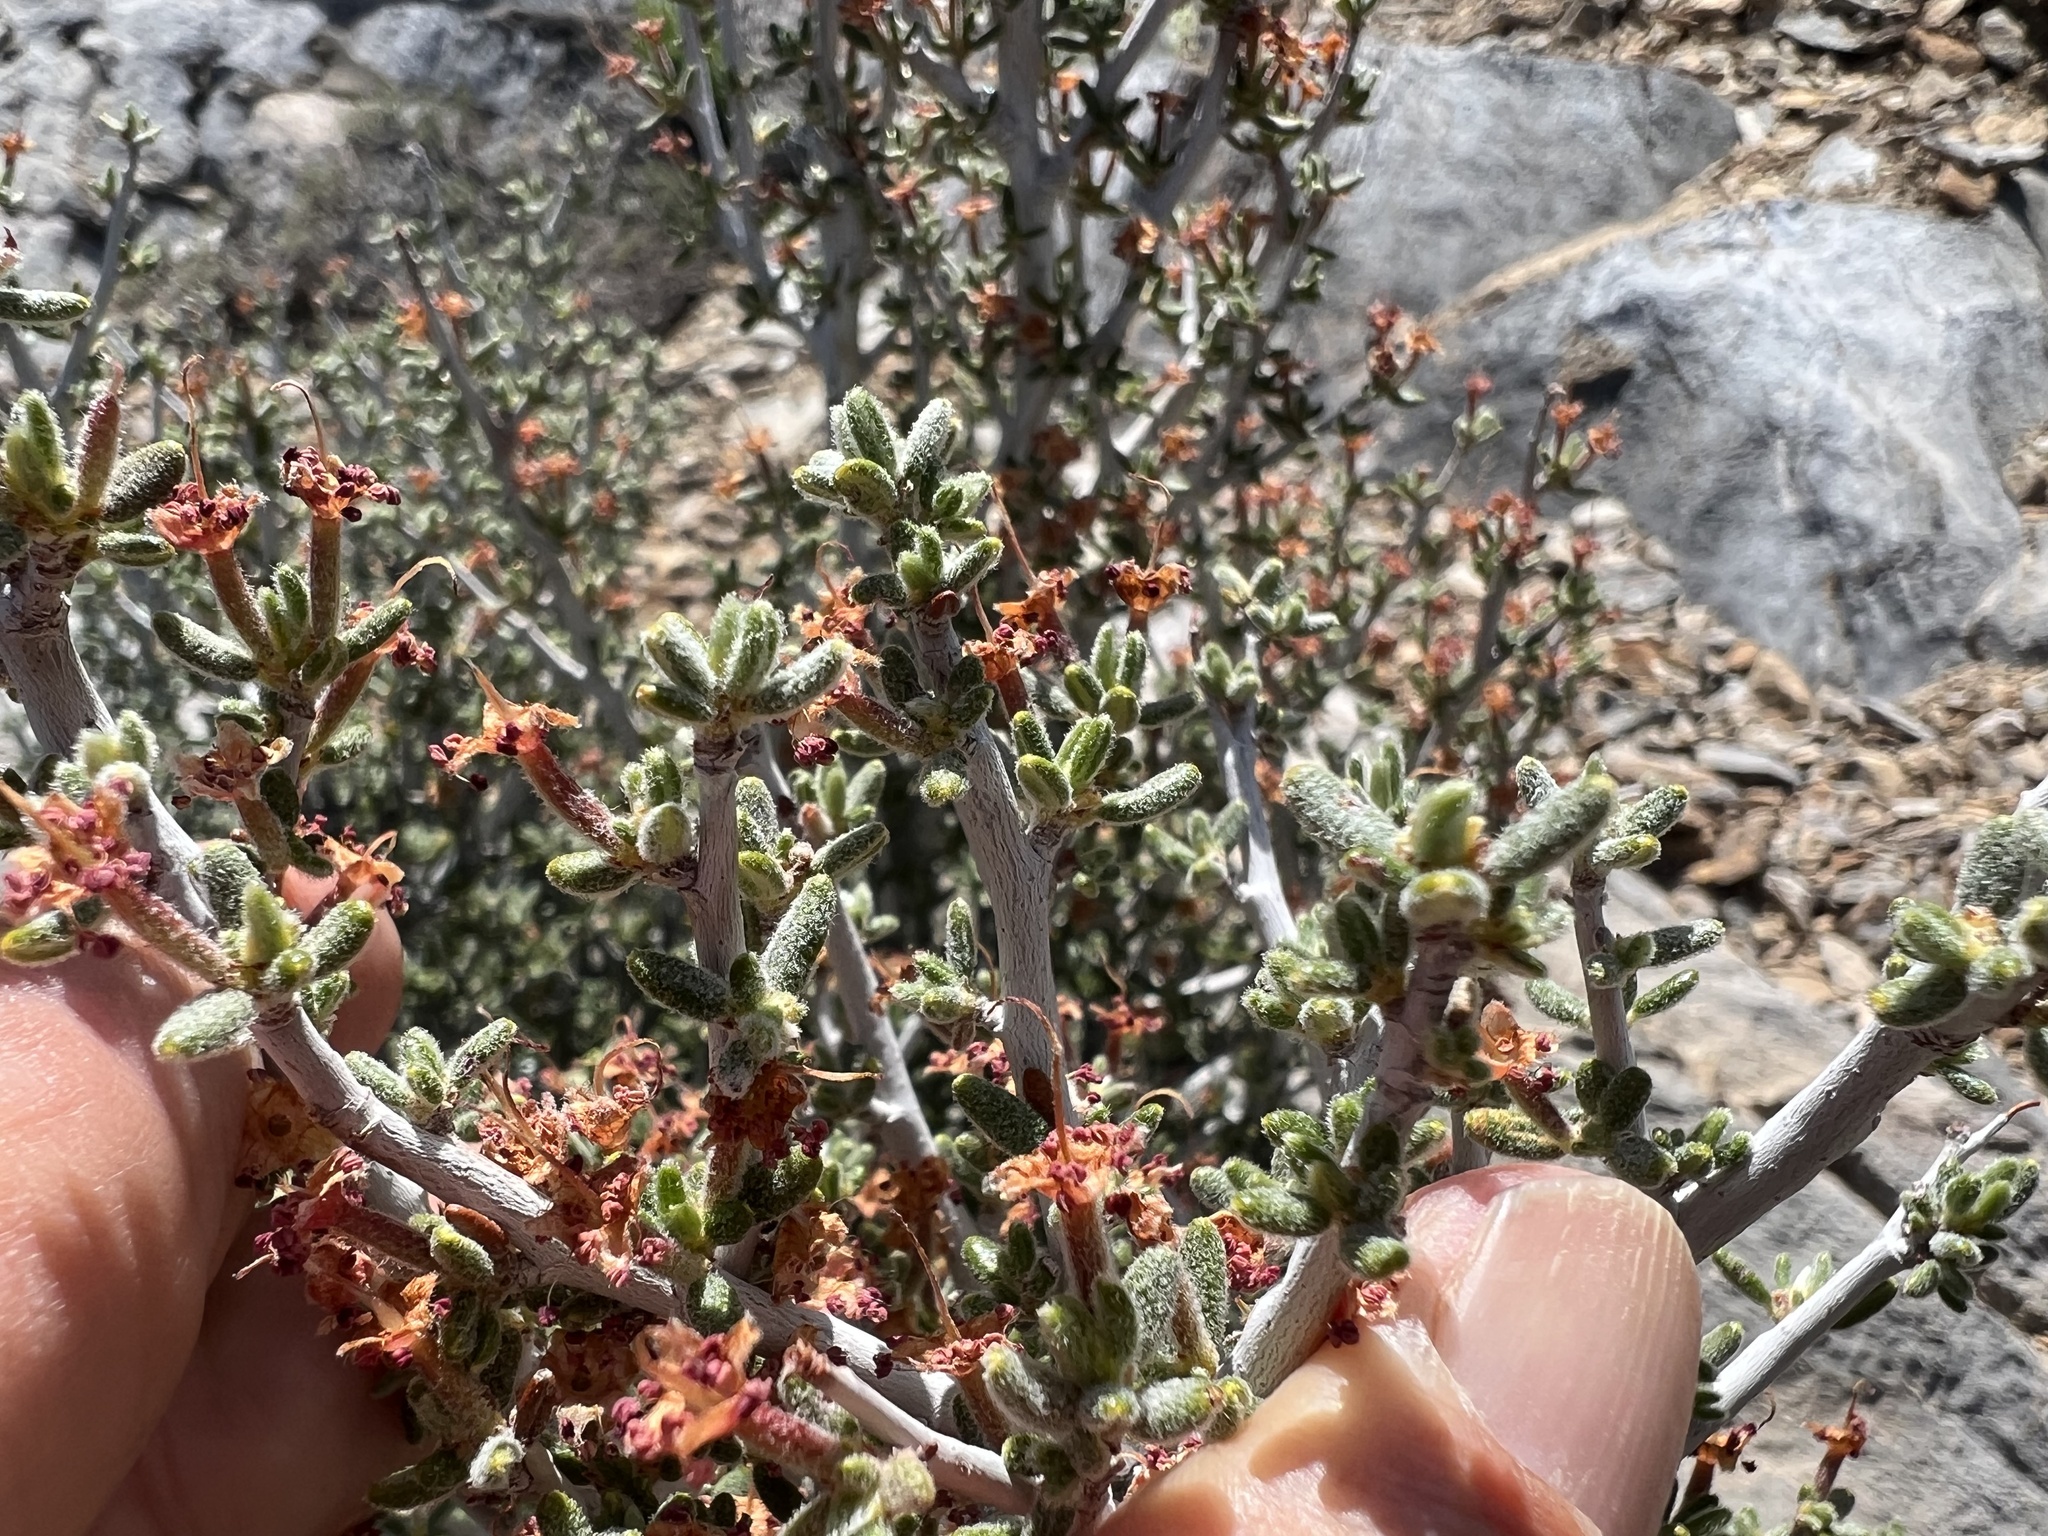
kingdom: Plantae
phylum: Tracheophyta
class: Magnoliopsida
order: Rosales
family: Rosaceae
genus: Cercocarpus
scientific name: Cercocarpus intricatus
